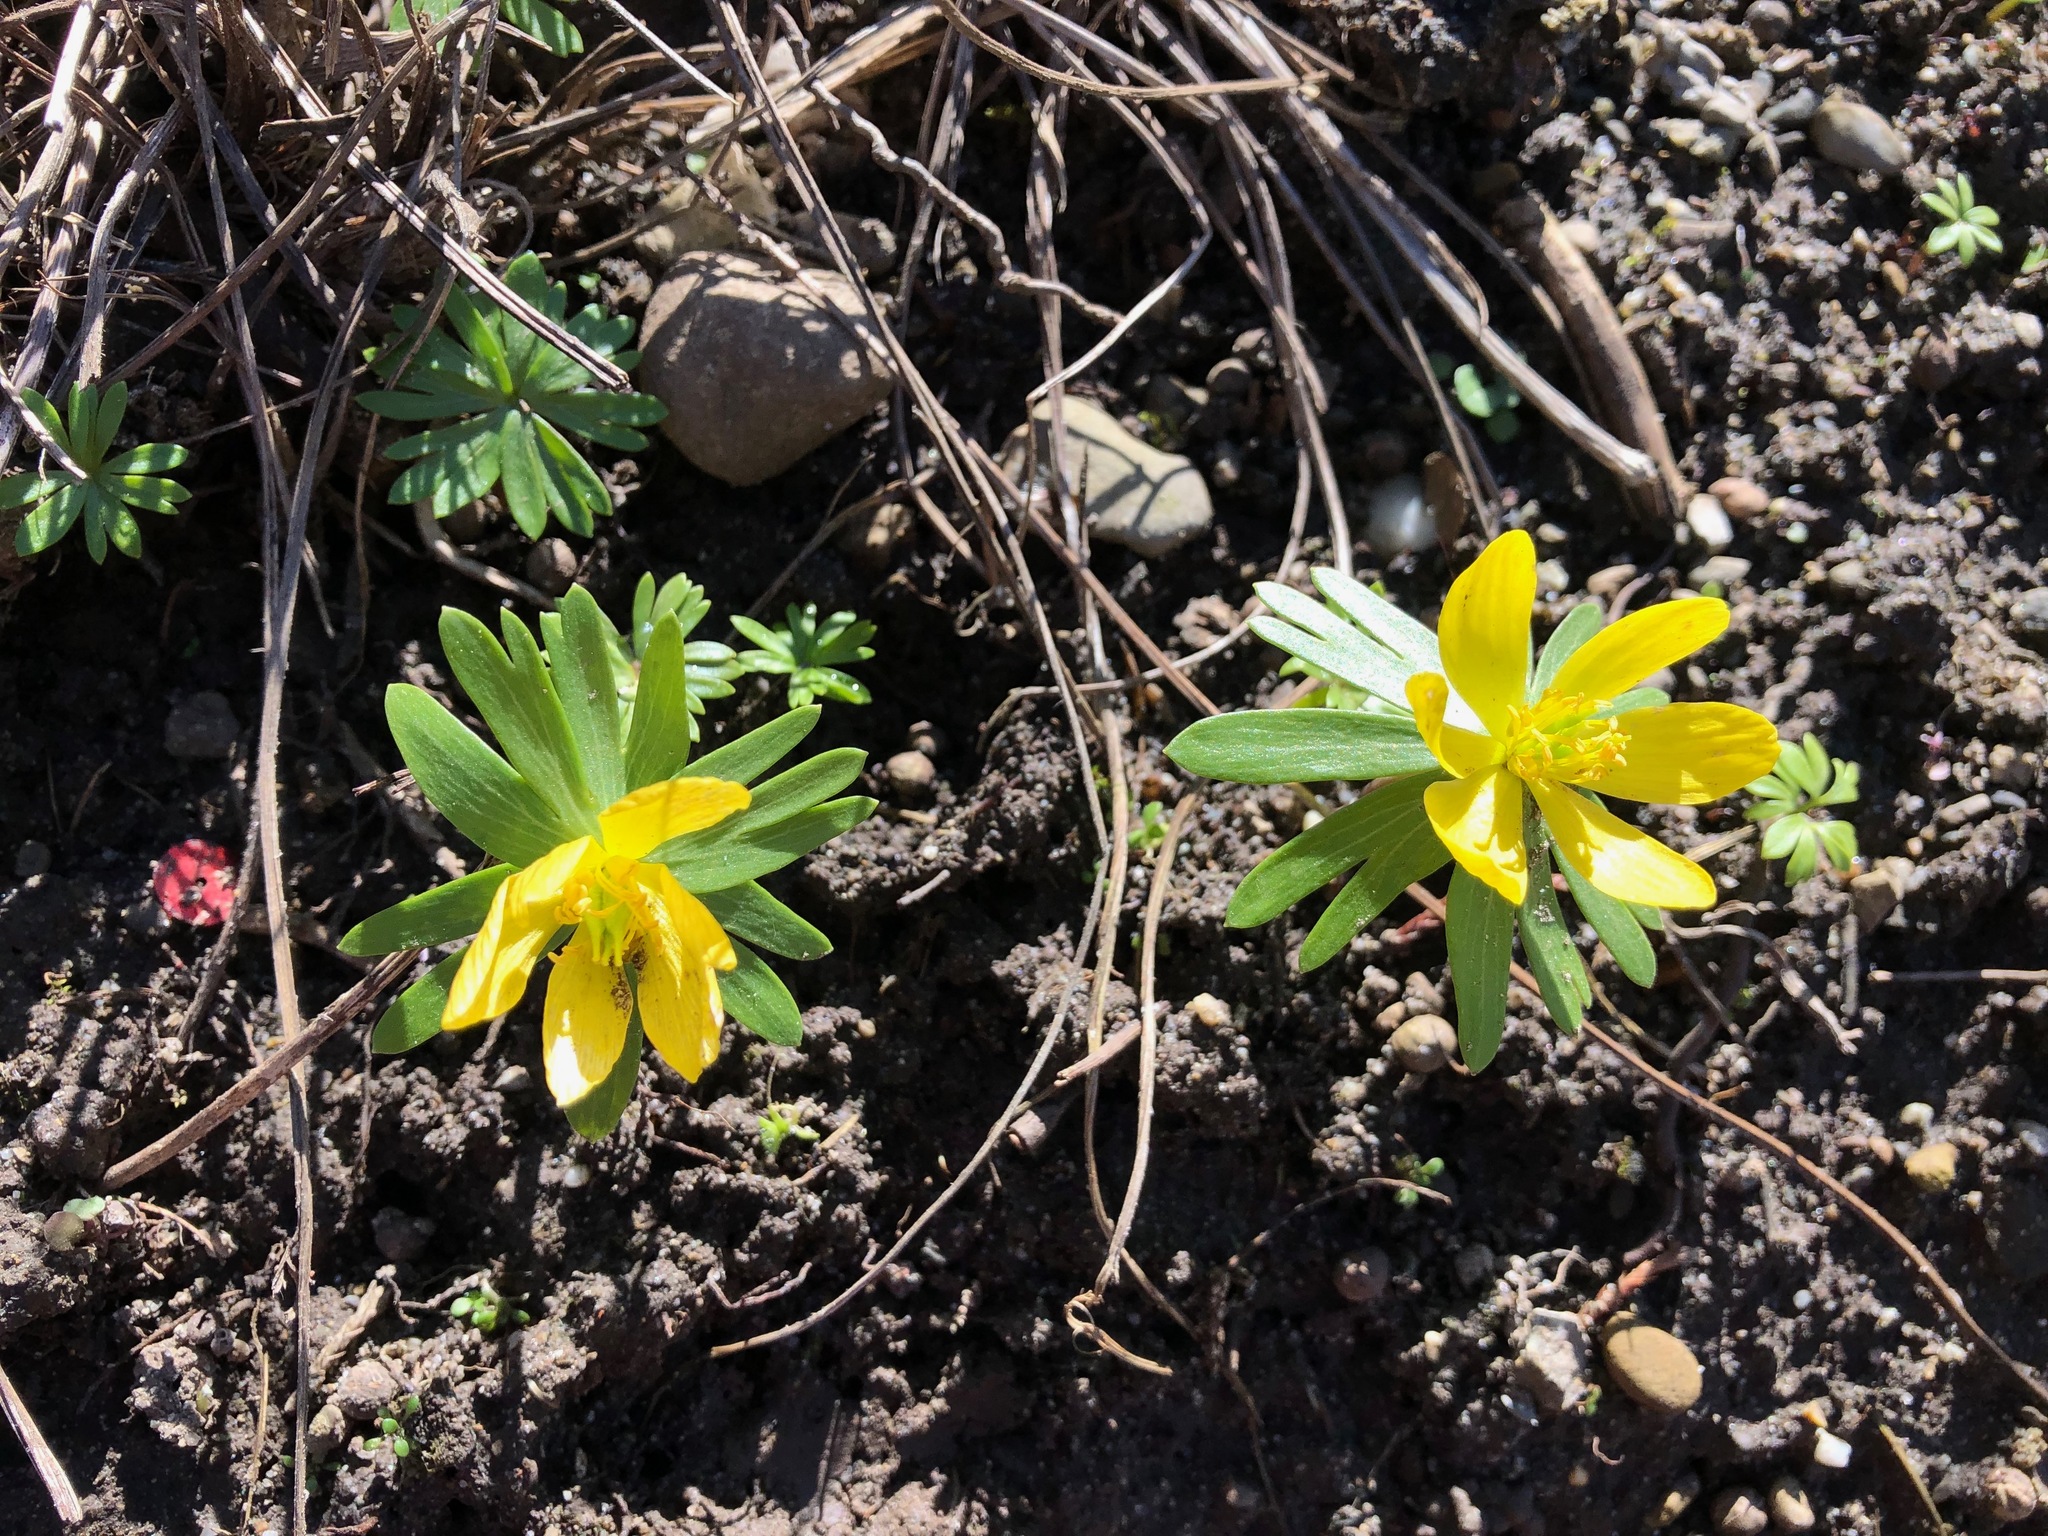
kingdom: Plantae
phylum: Tracheophyta
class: Magnoliopsida
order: Ranunculales
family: Ranunculaceae
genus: Eranthis
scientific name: Eranthis hyemalis
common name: Winter aconite
